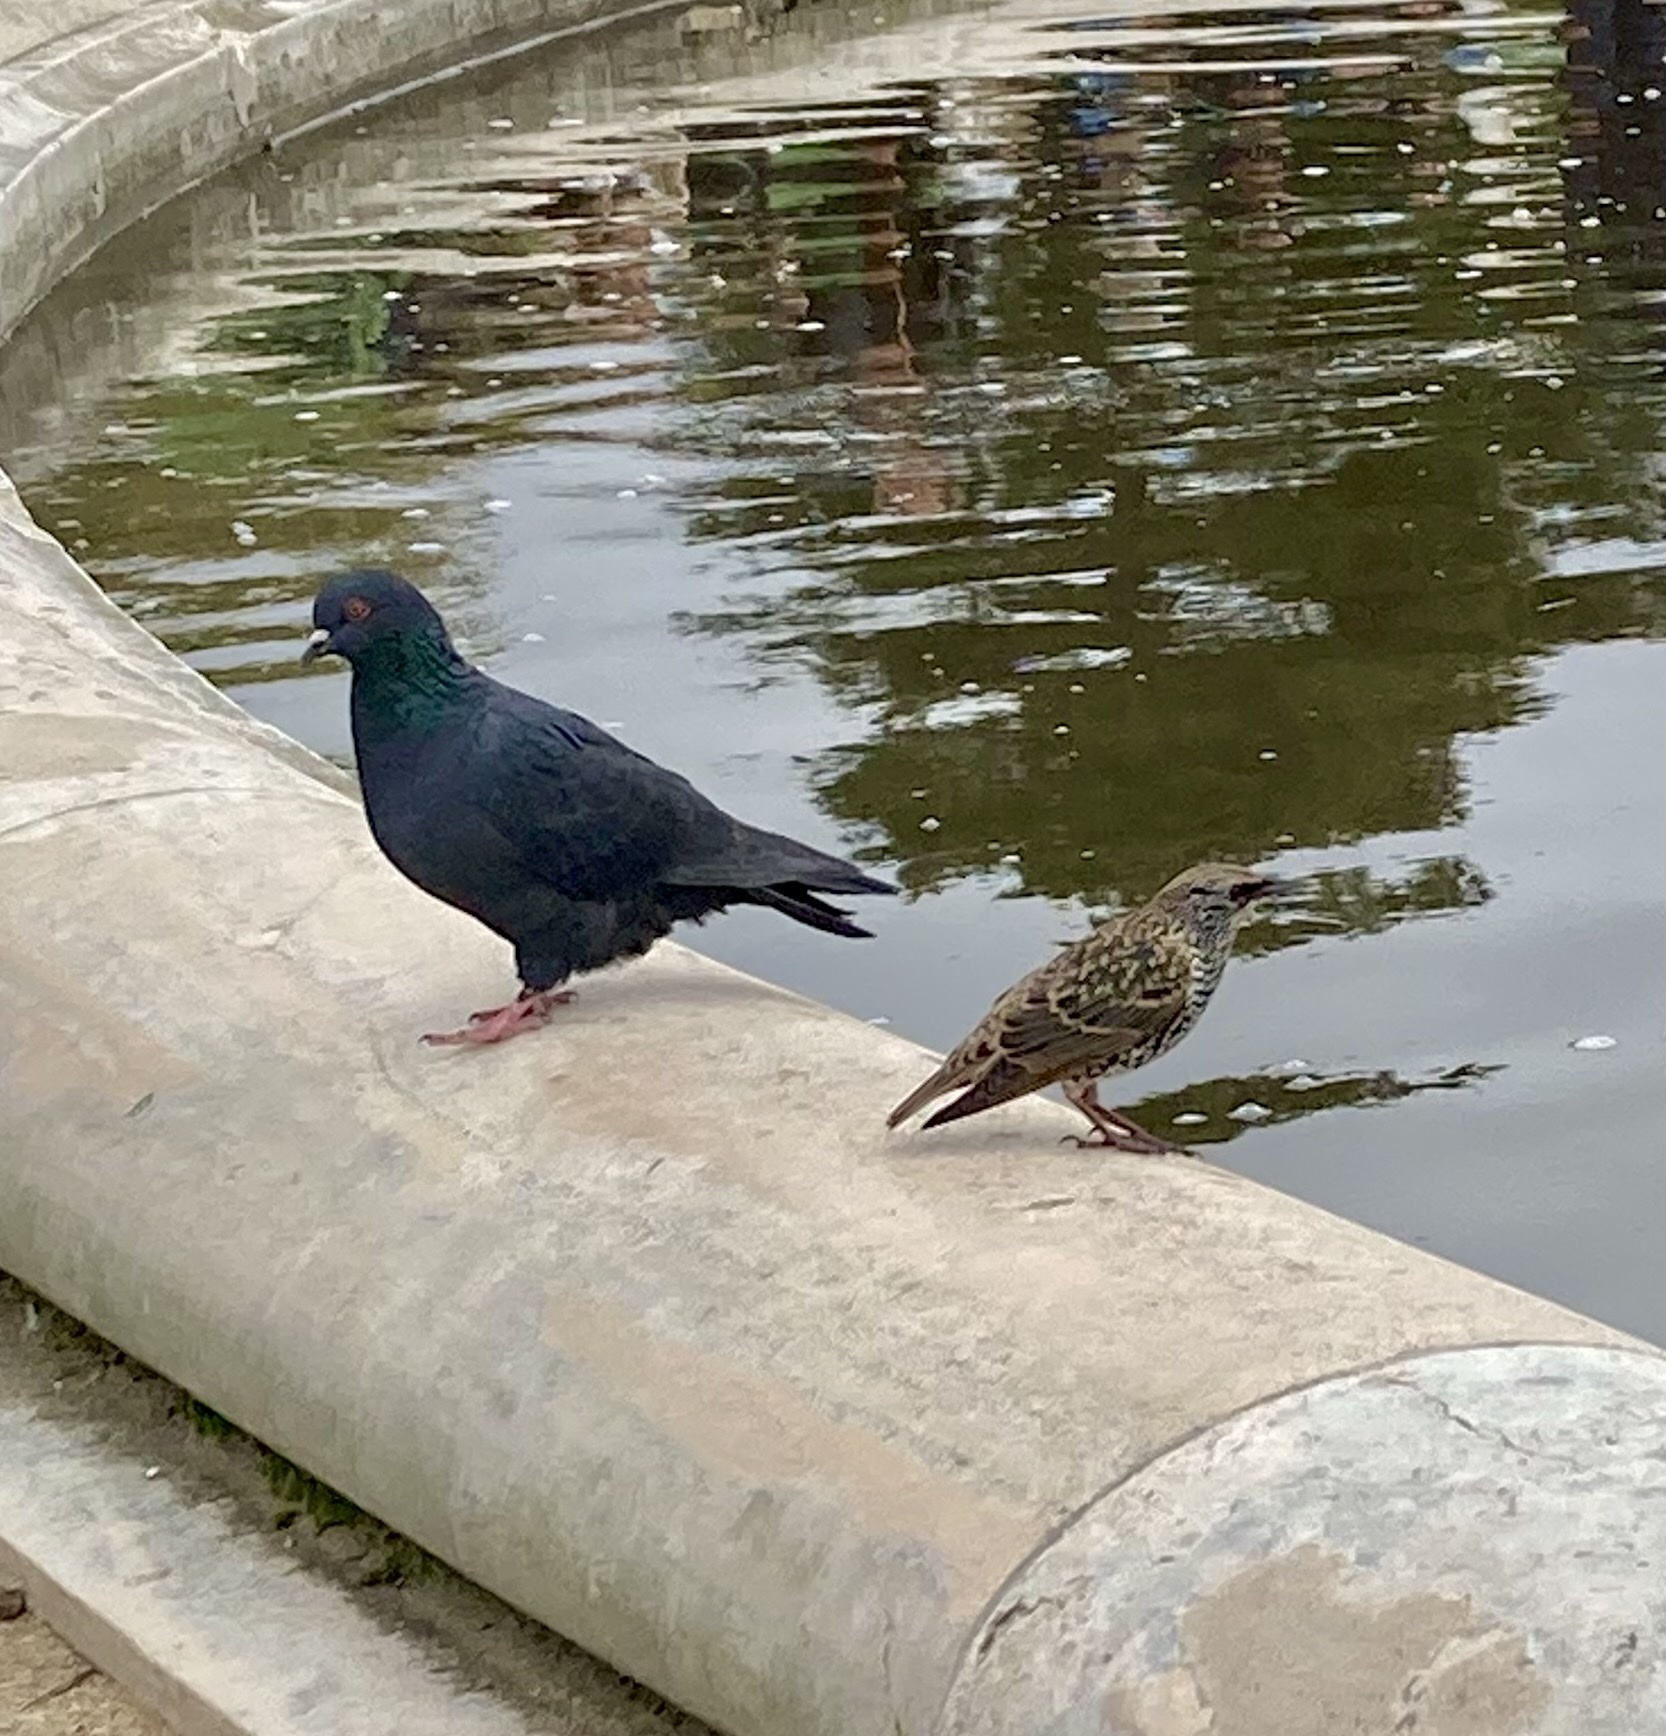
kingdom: Animalia
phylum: Chordata
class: Aves
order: Passeriformes
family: Sturnidae
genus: Sturnus
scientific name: Sturnus vulgaris
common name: Common starling
